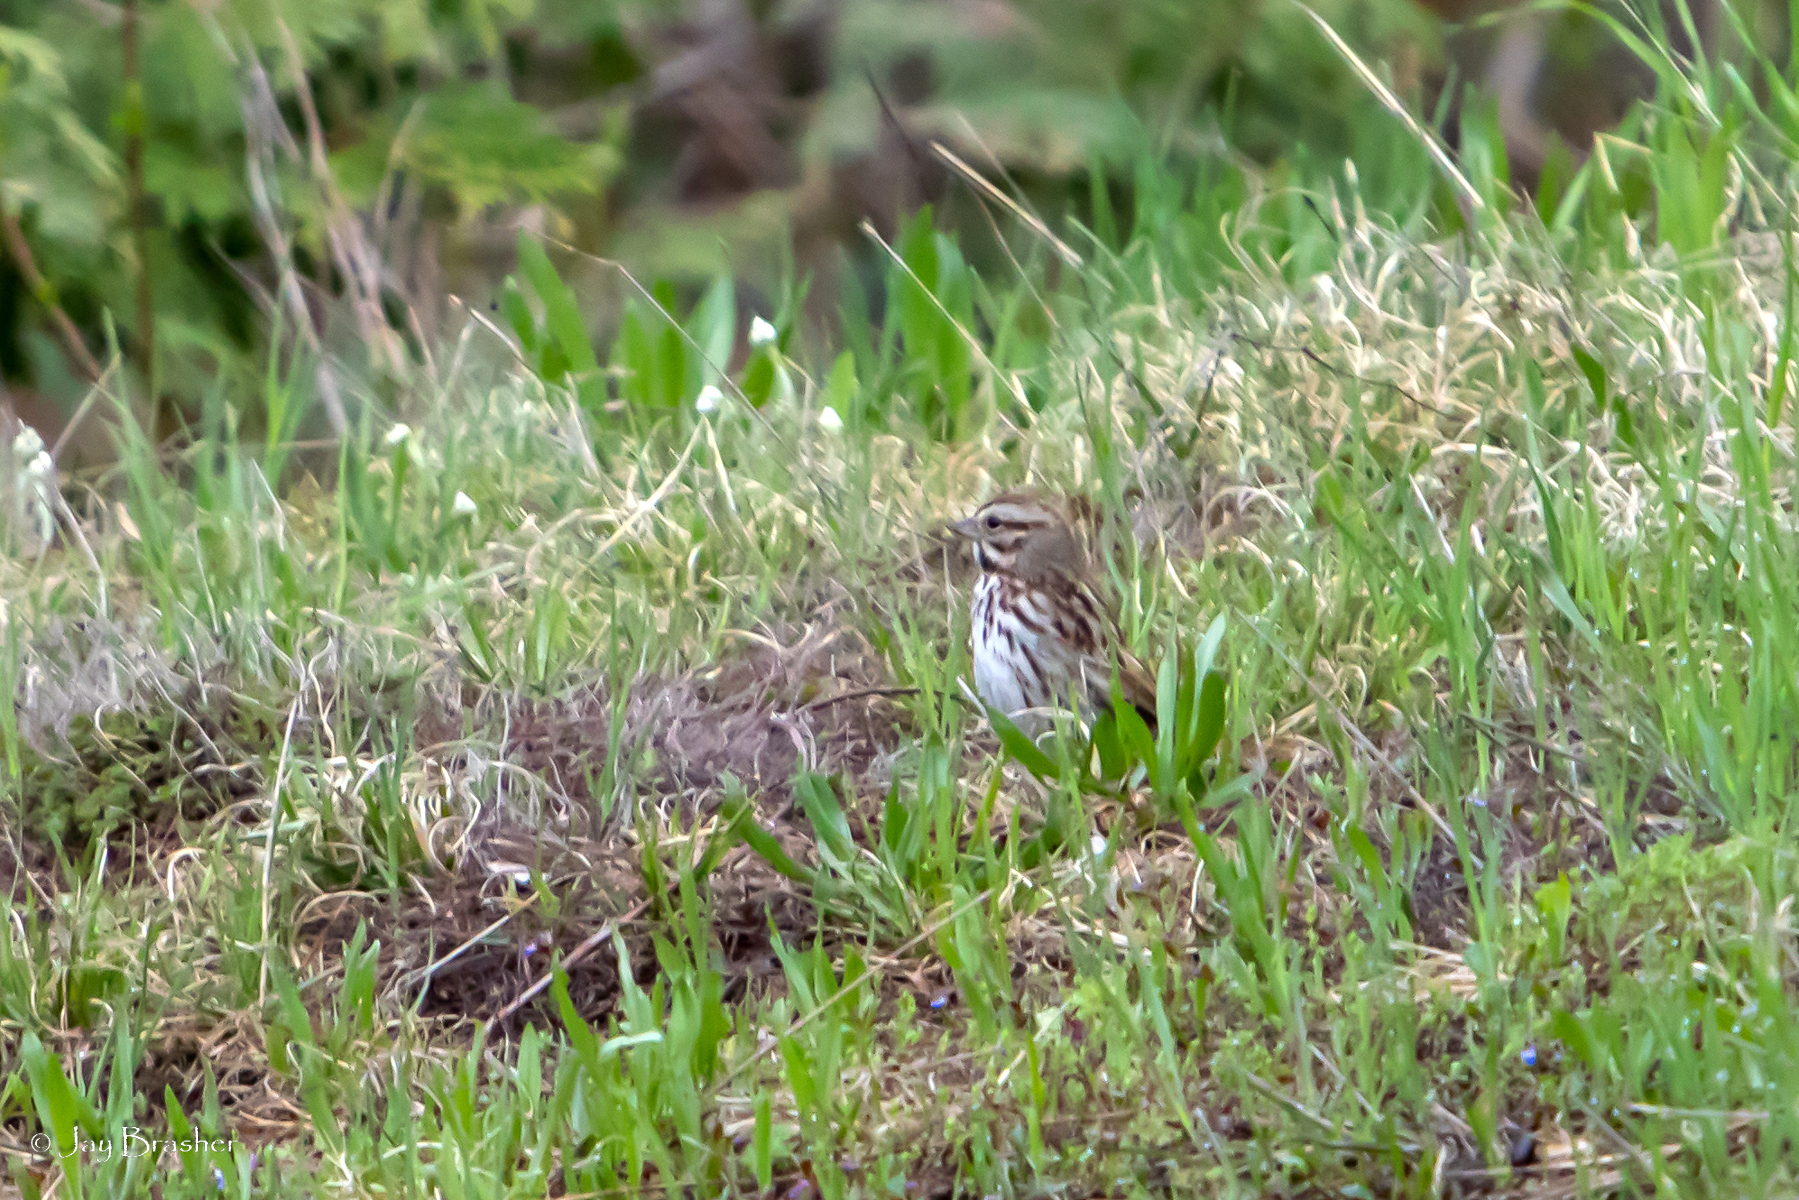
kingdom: Animalia
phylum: Chordata
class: Aves
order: Passeriformes
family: Passerellidae
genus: Melospiza
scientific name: Melospiza melodia
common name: Song sparrow
